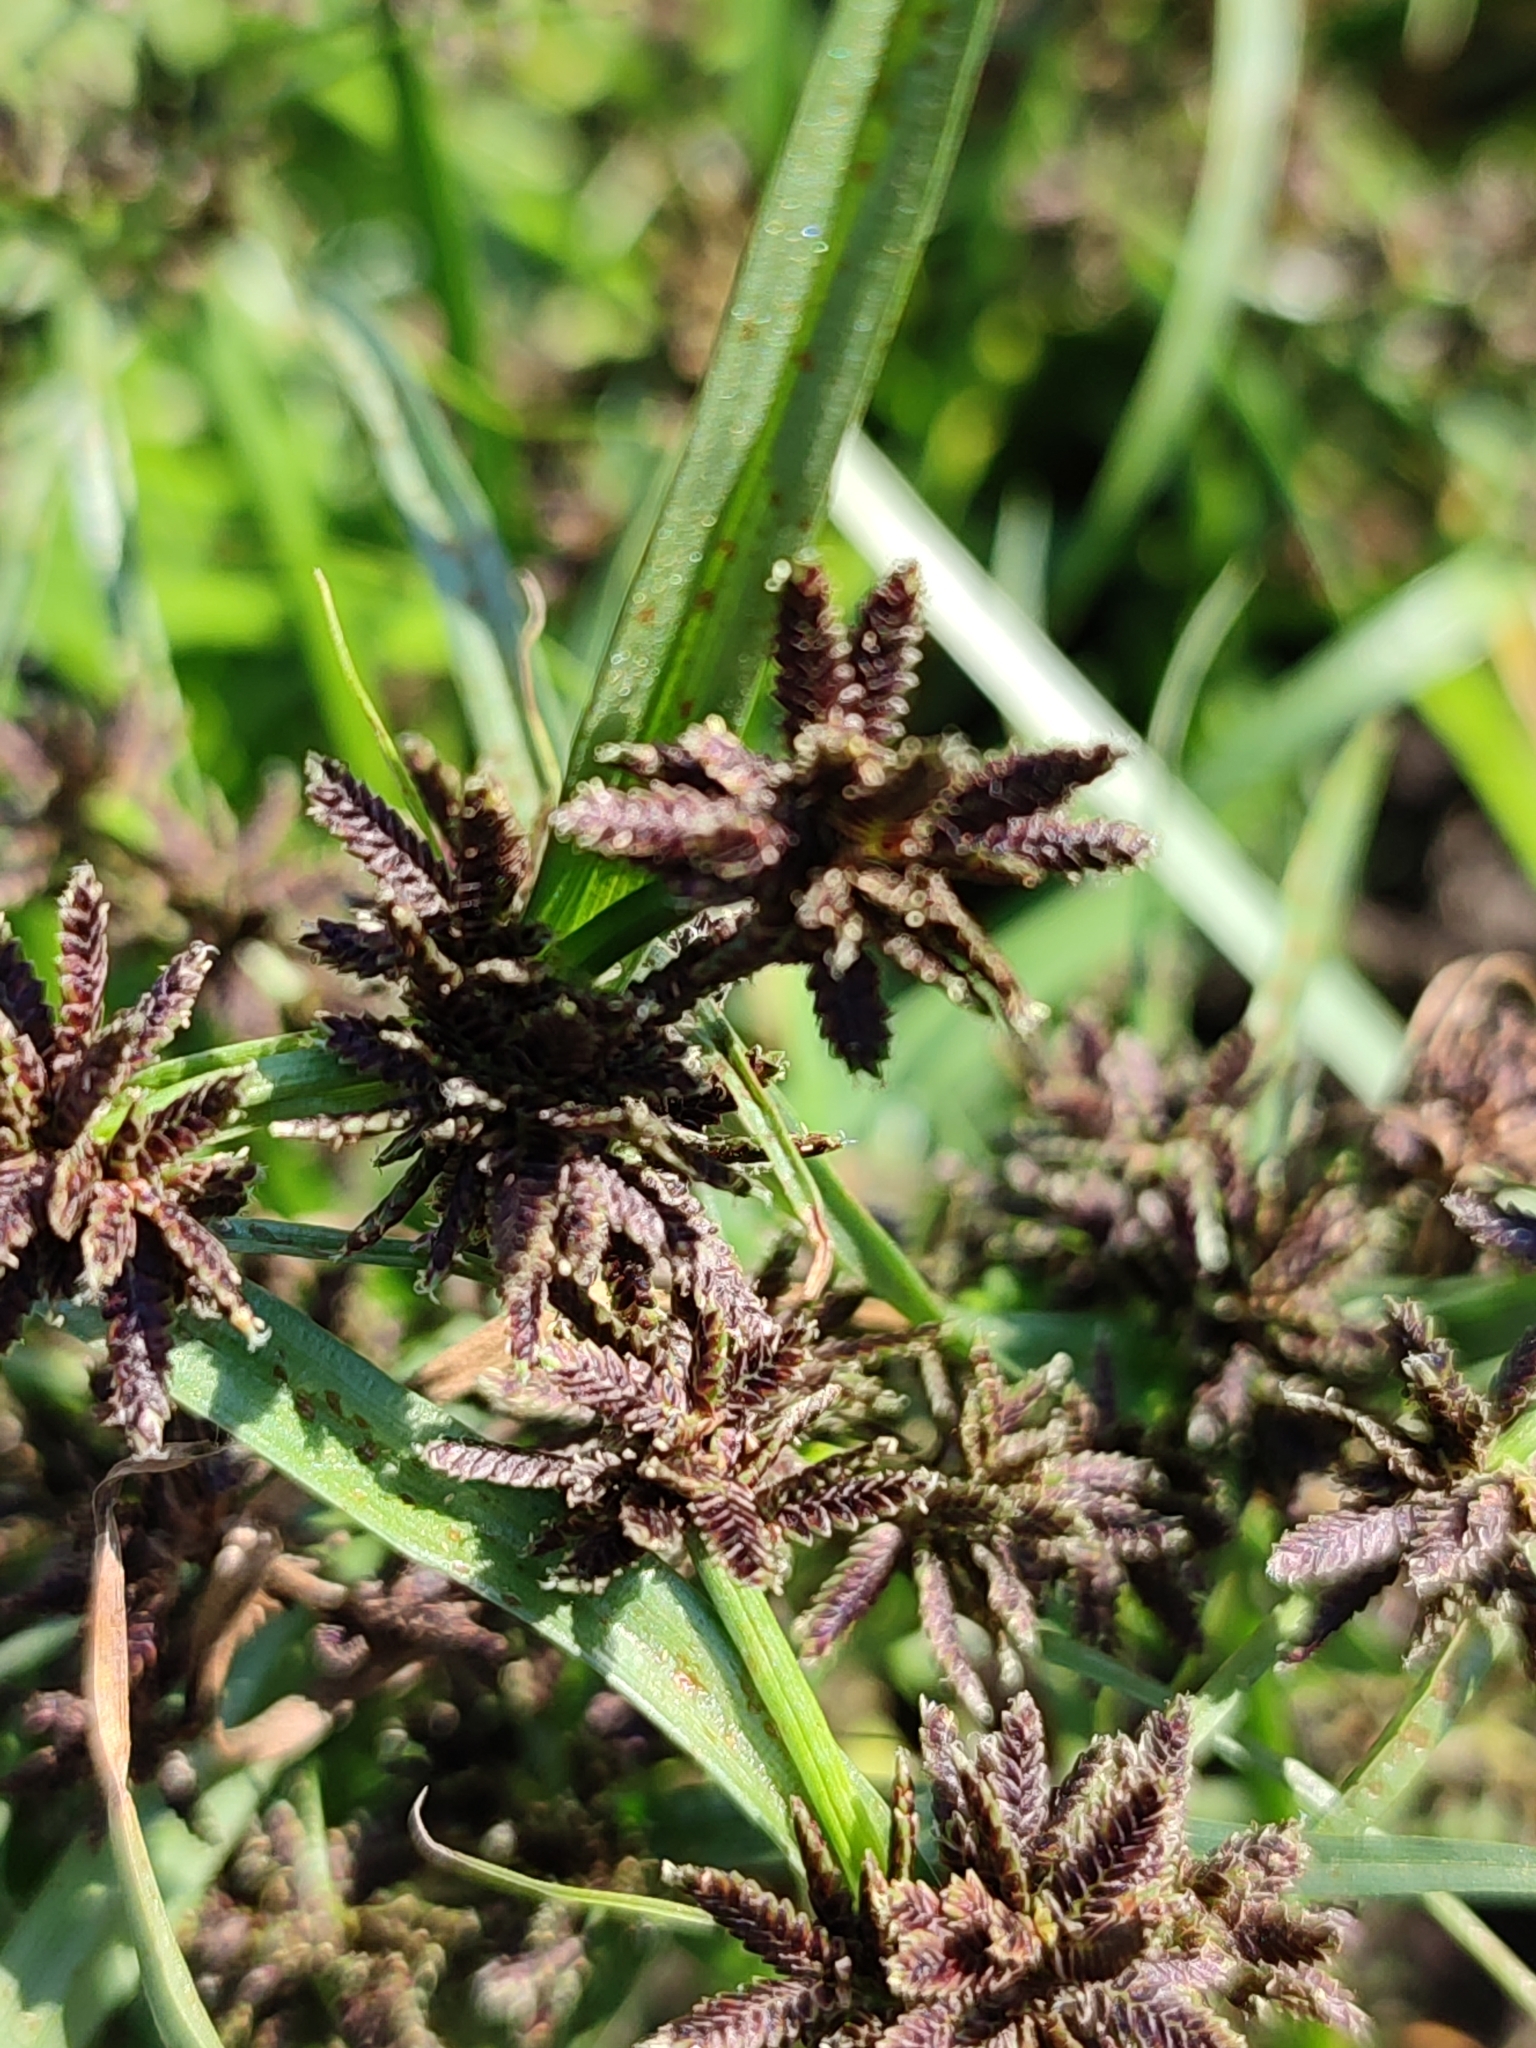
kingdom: Plantae
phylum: Tracheophyta
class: Liliopsida
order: Poales
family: Cyperaceae
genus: Cyperus
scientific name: Cyperus fuscus
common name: Brown galingale
